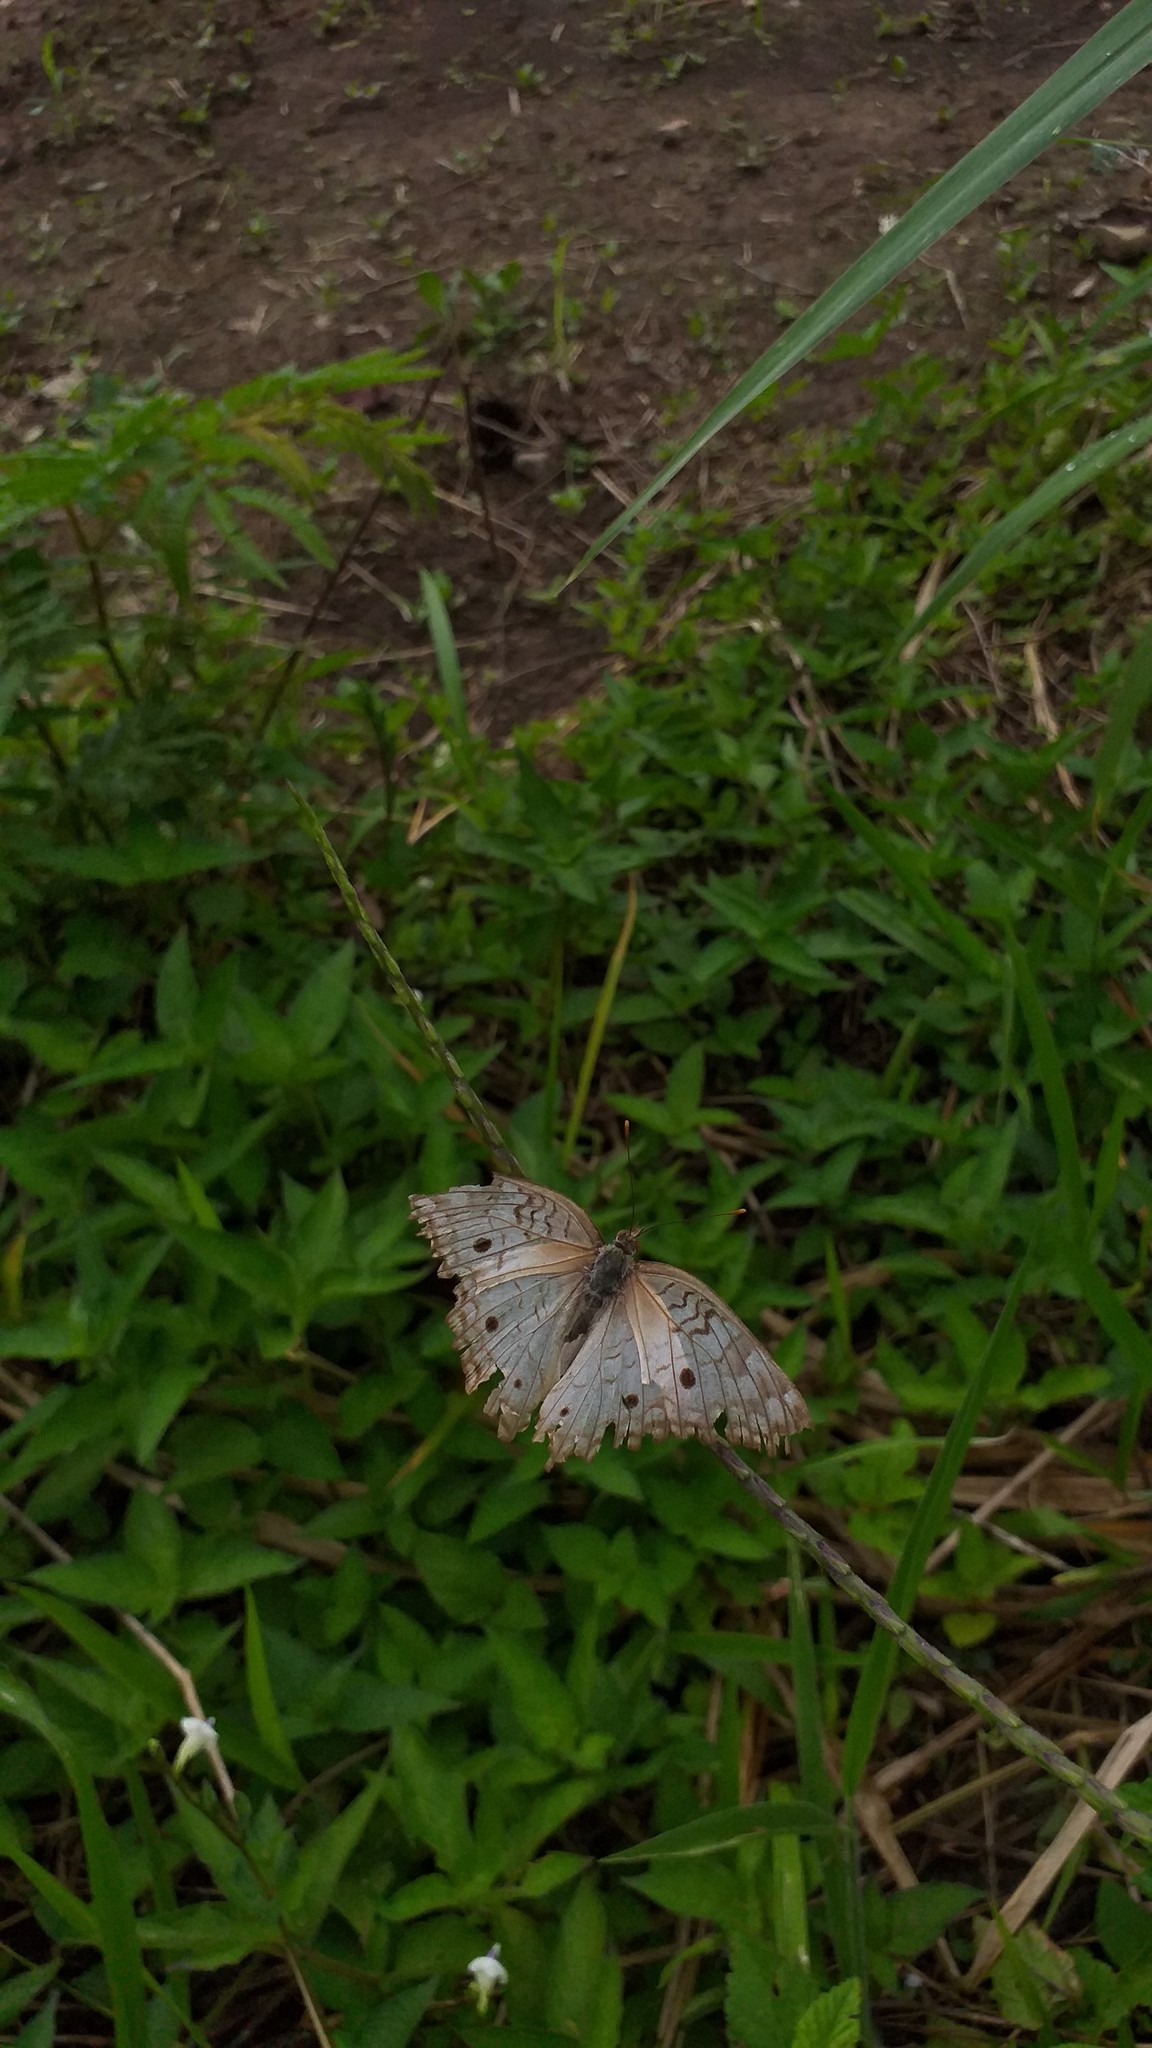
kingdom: Animalia
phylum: Arthropoda
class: Insecta
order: Lepidoptera
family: Nymphalidae
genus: Anartia
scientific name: Anartia jatrophae
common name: White peacock
